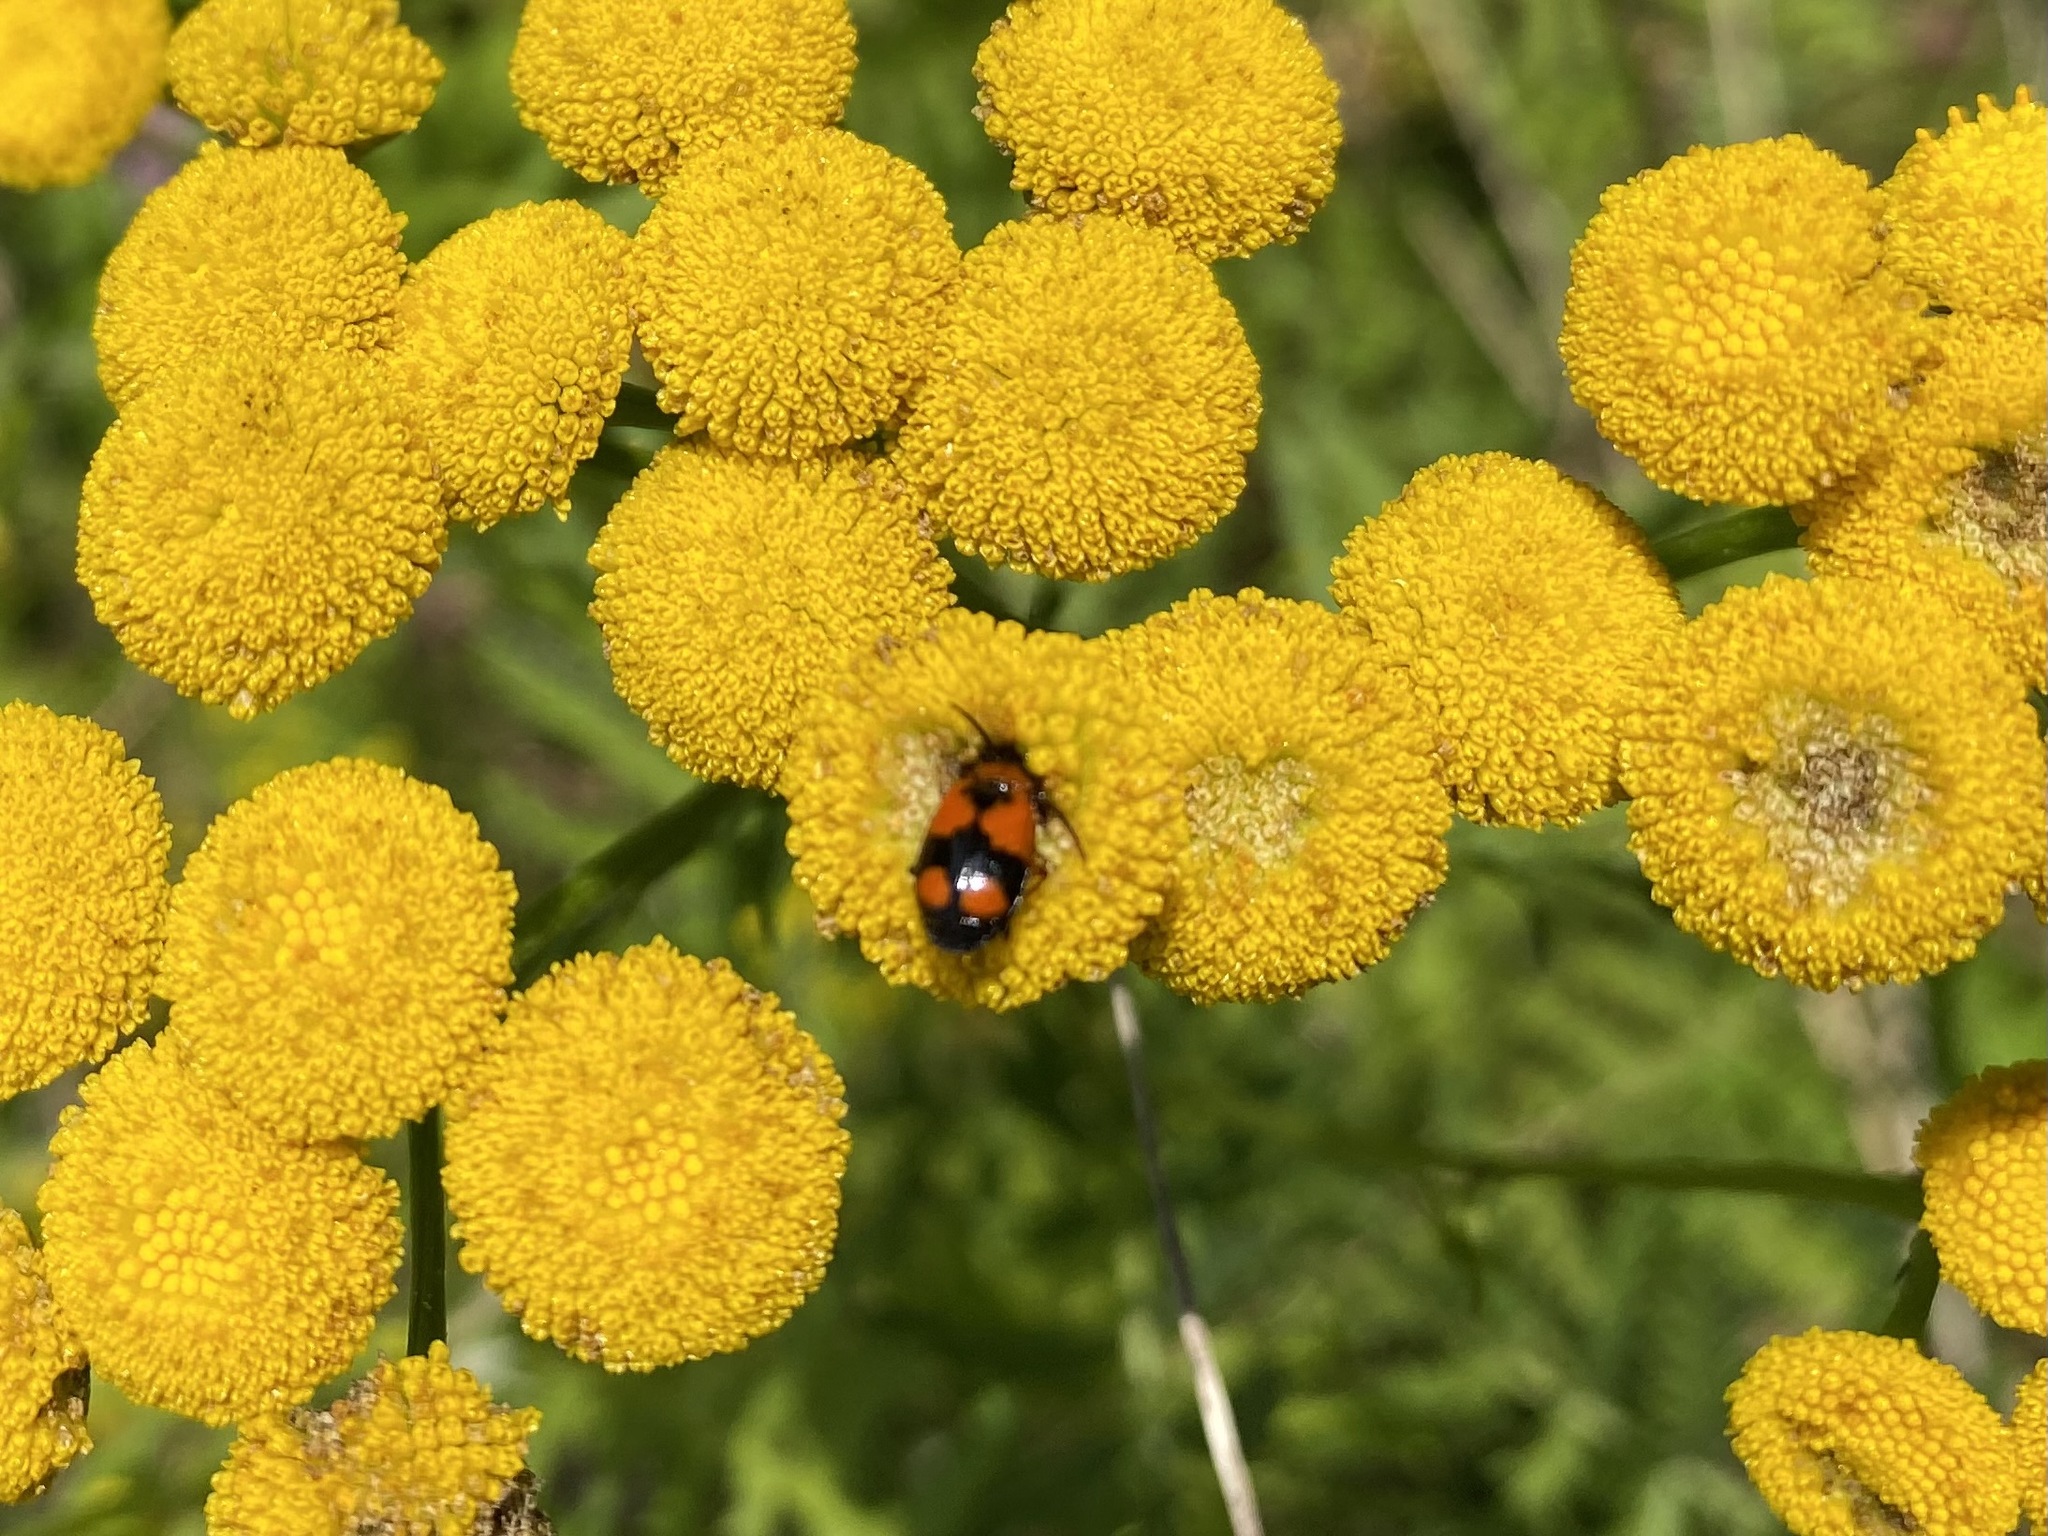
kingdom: Animalia
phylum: Arthropoda
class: Insecta
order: Coleoptera
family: Carabidae
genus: Lebia
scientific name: Lebia cruxminor
